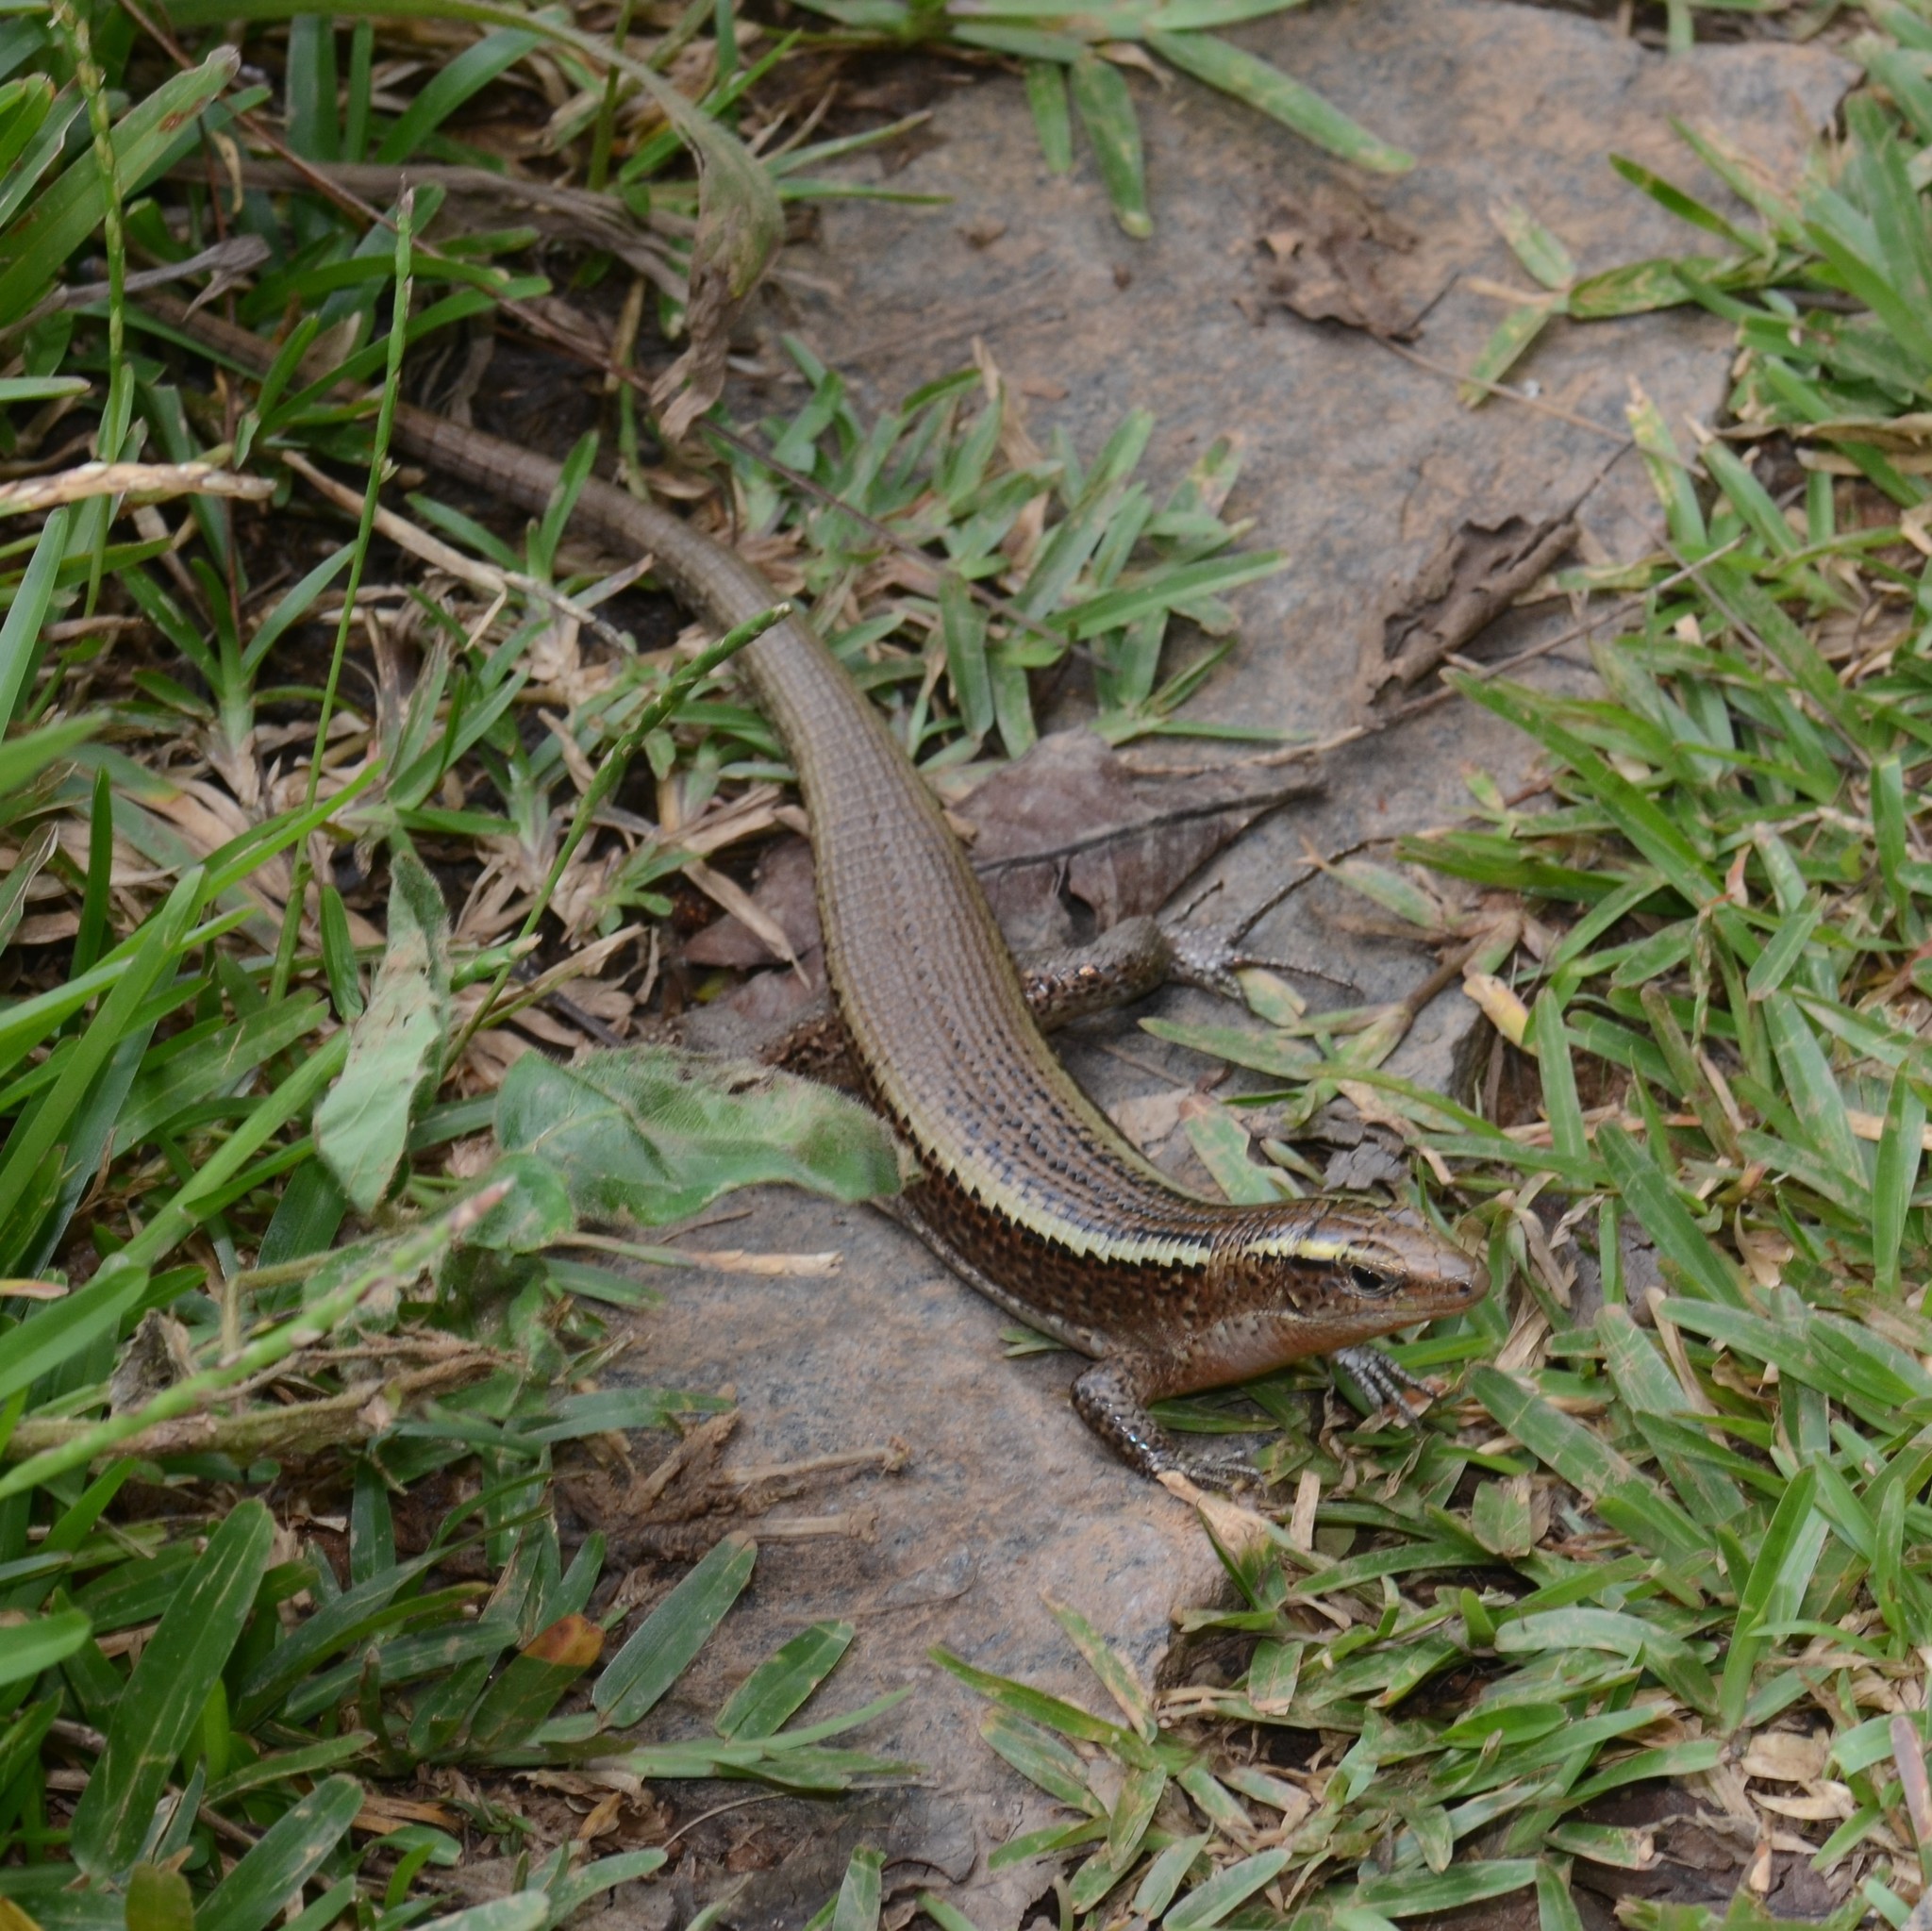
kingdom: Animalia
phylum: Chordata
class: Squamata
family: Gerrhosauridae
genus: Zonosaurus
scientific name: Zonosaurus madagascariensis
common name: Madagascar girdled lizard
